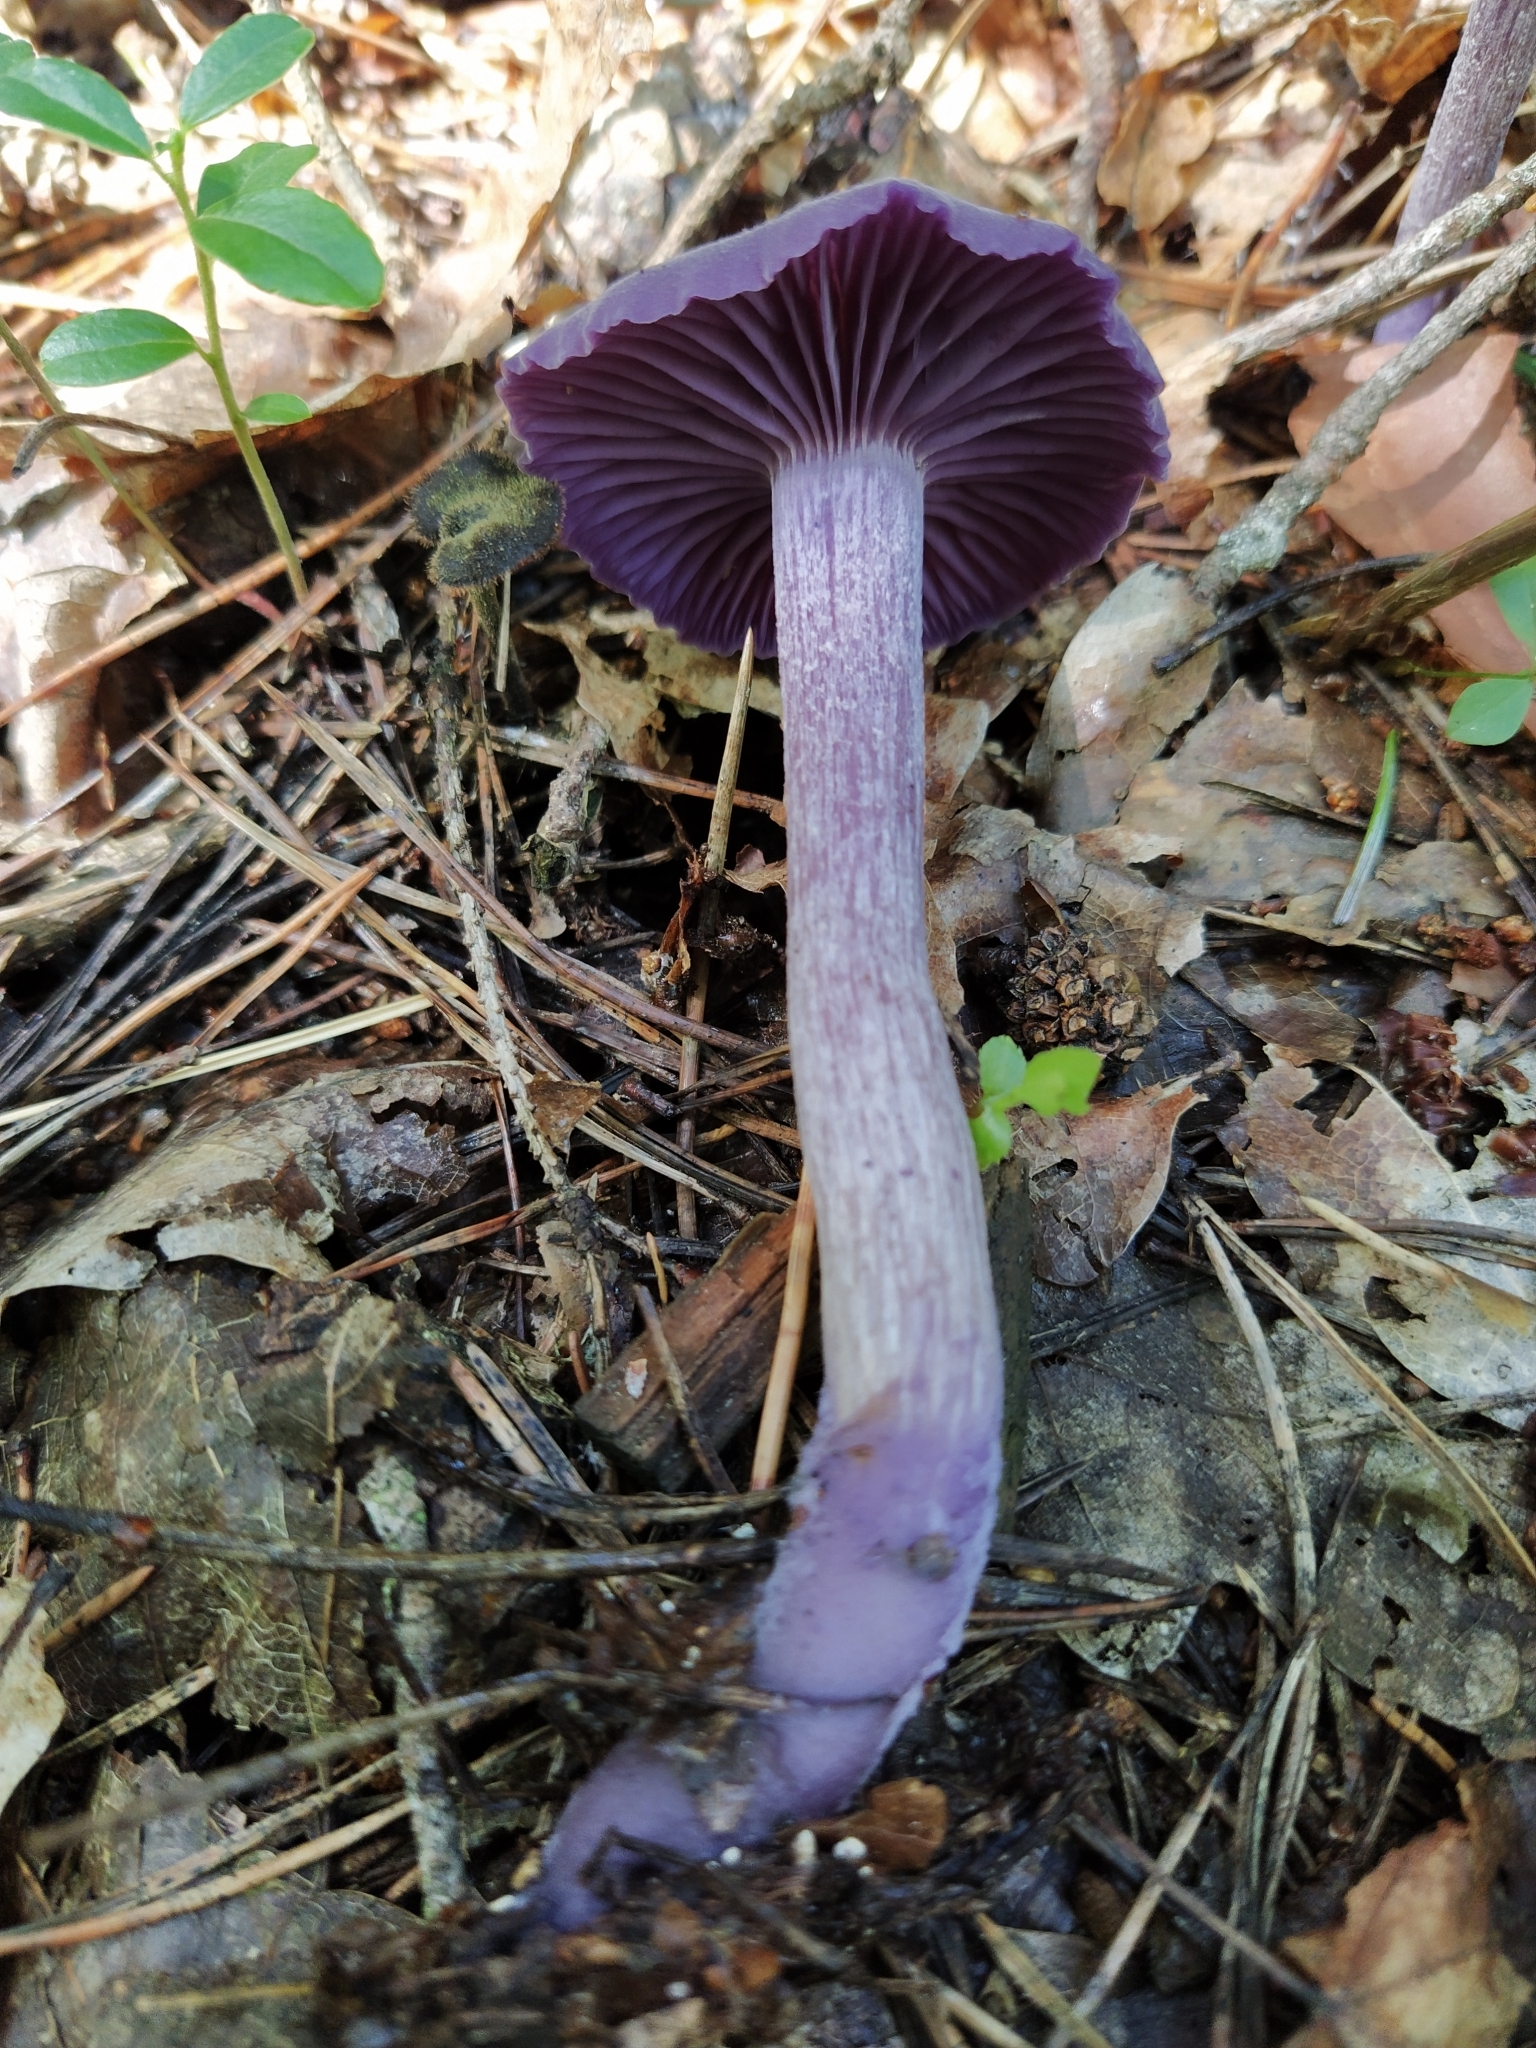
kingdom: Fungi
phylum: Basidiomycota
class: Agaricomycetes
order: Agaricales
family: Hydnangiaceae
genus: Laccaria
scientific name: Laccaria amethystina
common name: Amethyst deceiver
